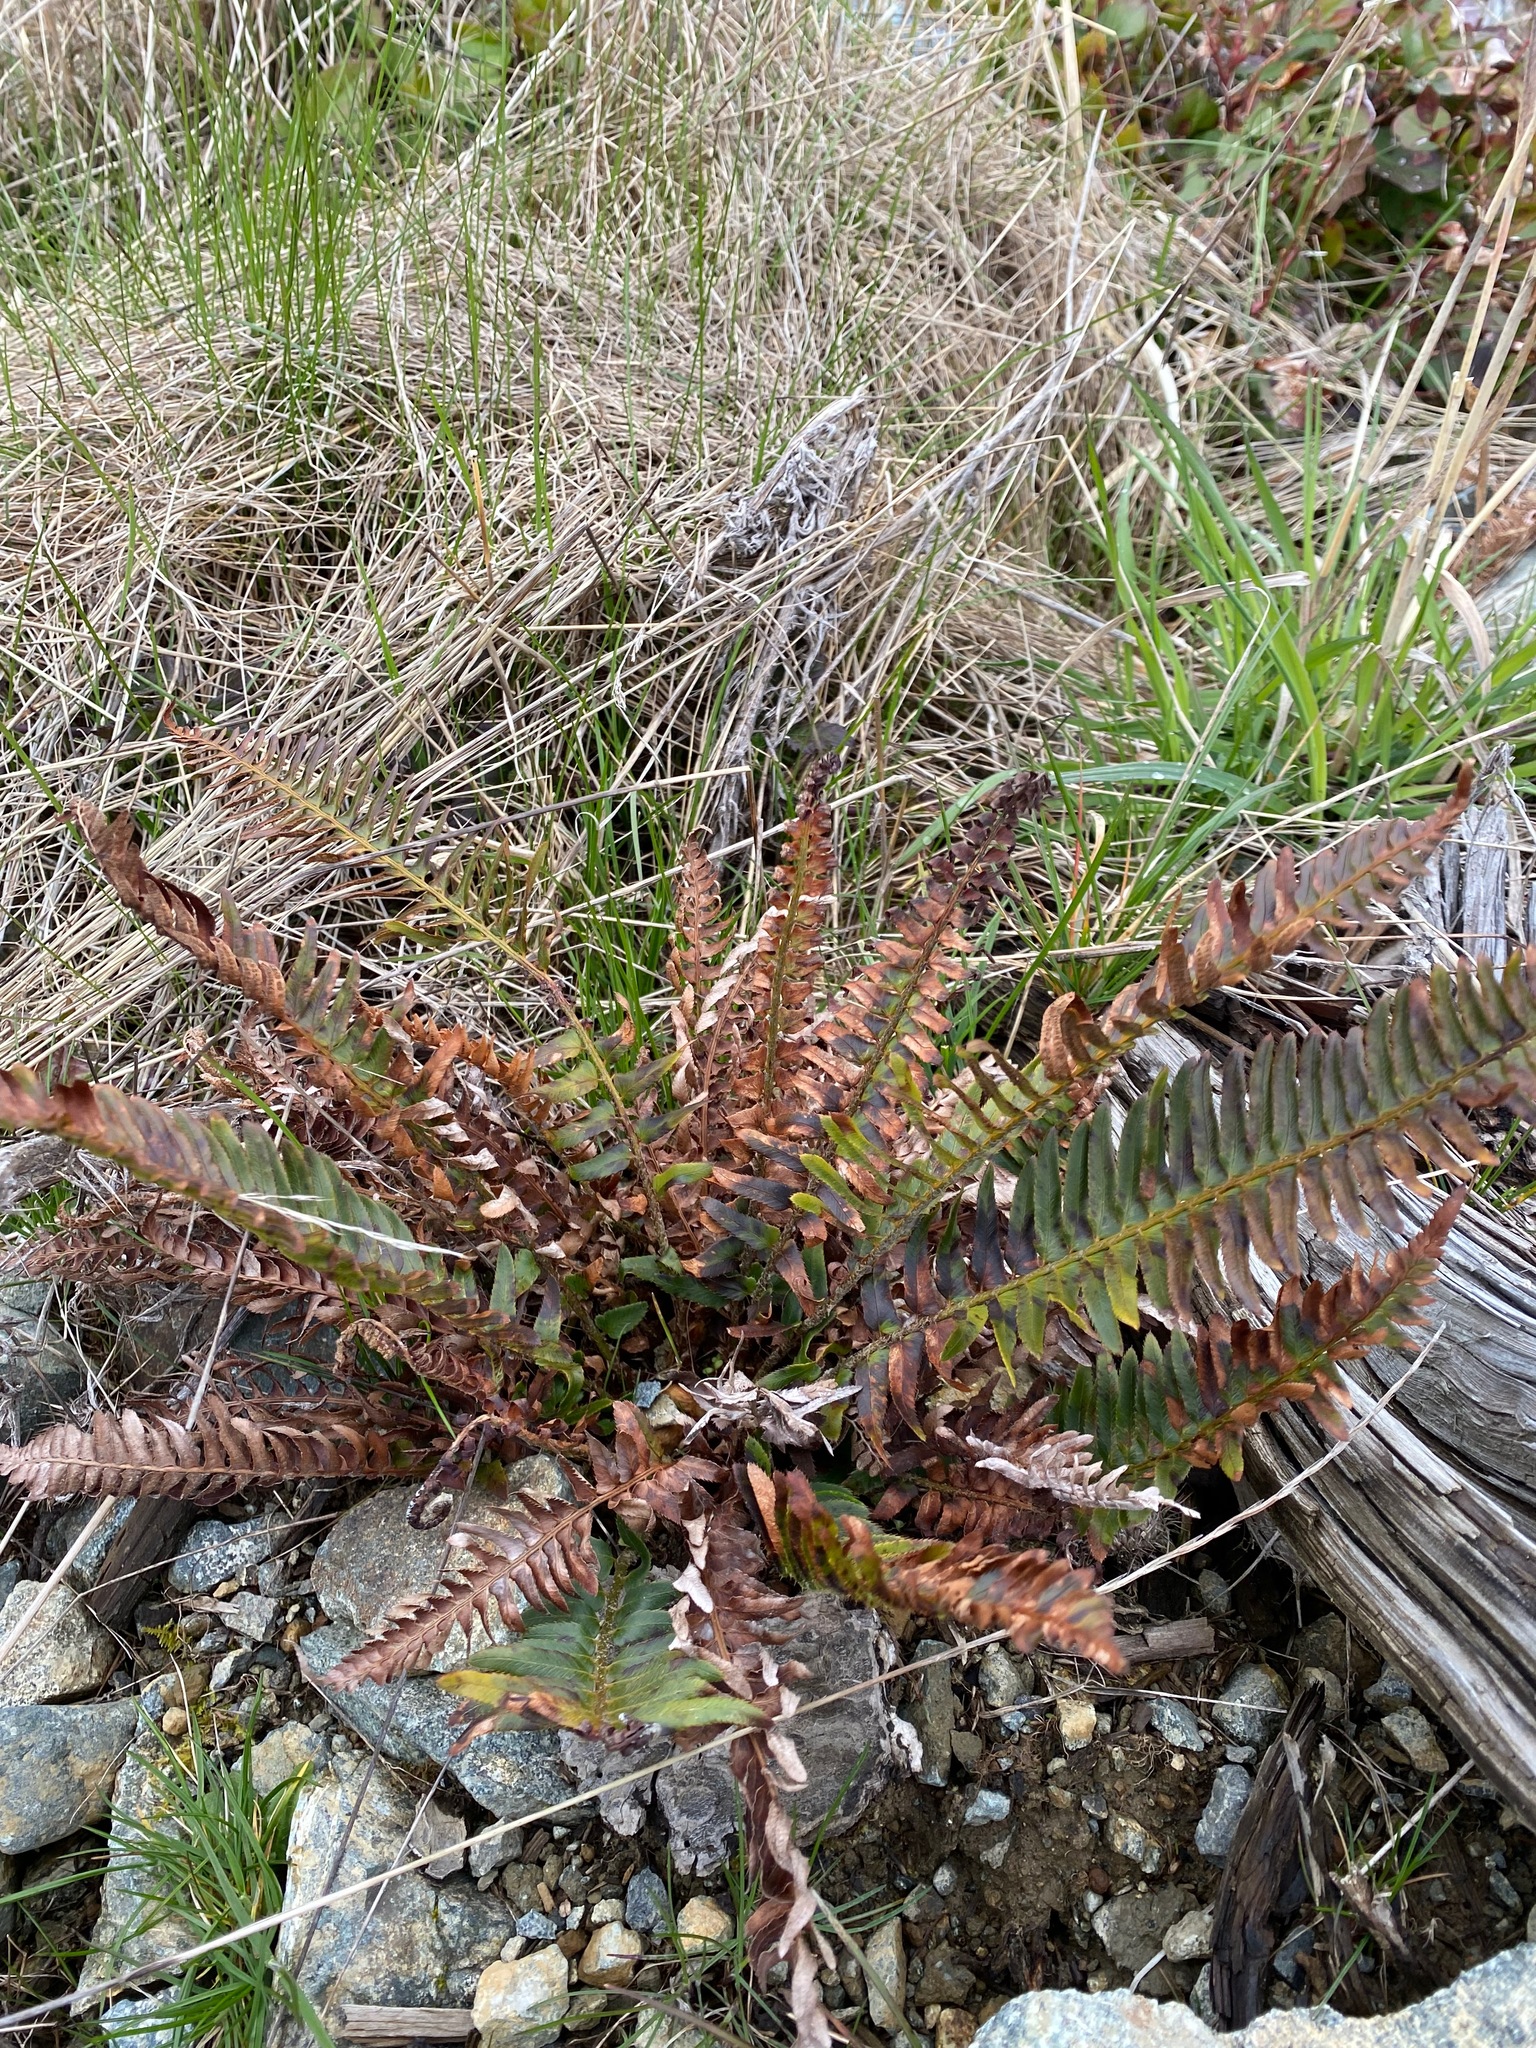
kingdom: Plantae
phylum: Tracheophyta
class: Polypodiopsida
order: Polypodiales
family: Dryopteridaceae
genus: Polystichum
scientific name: Polystichum imbricans
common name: Dwarf western sword fern
